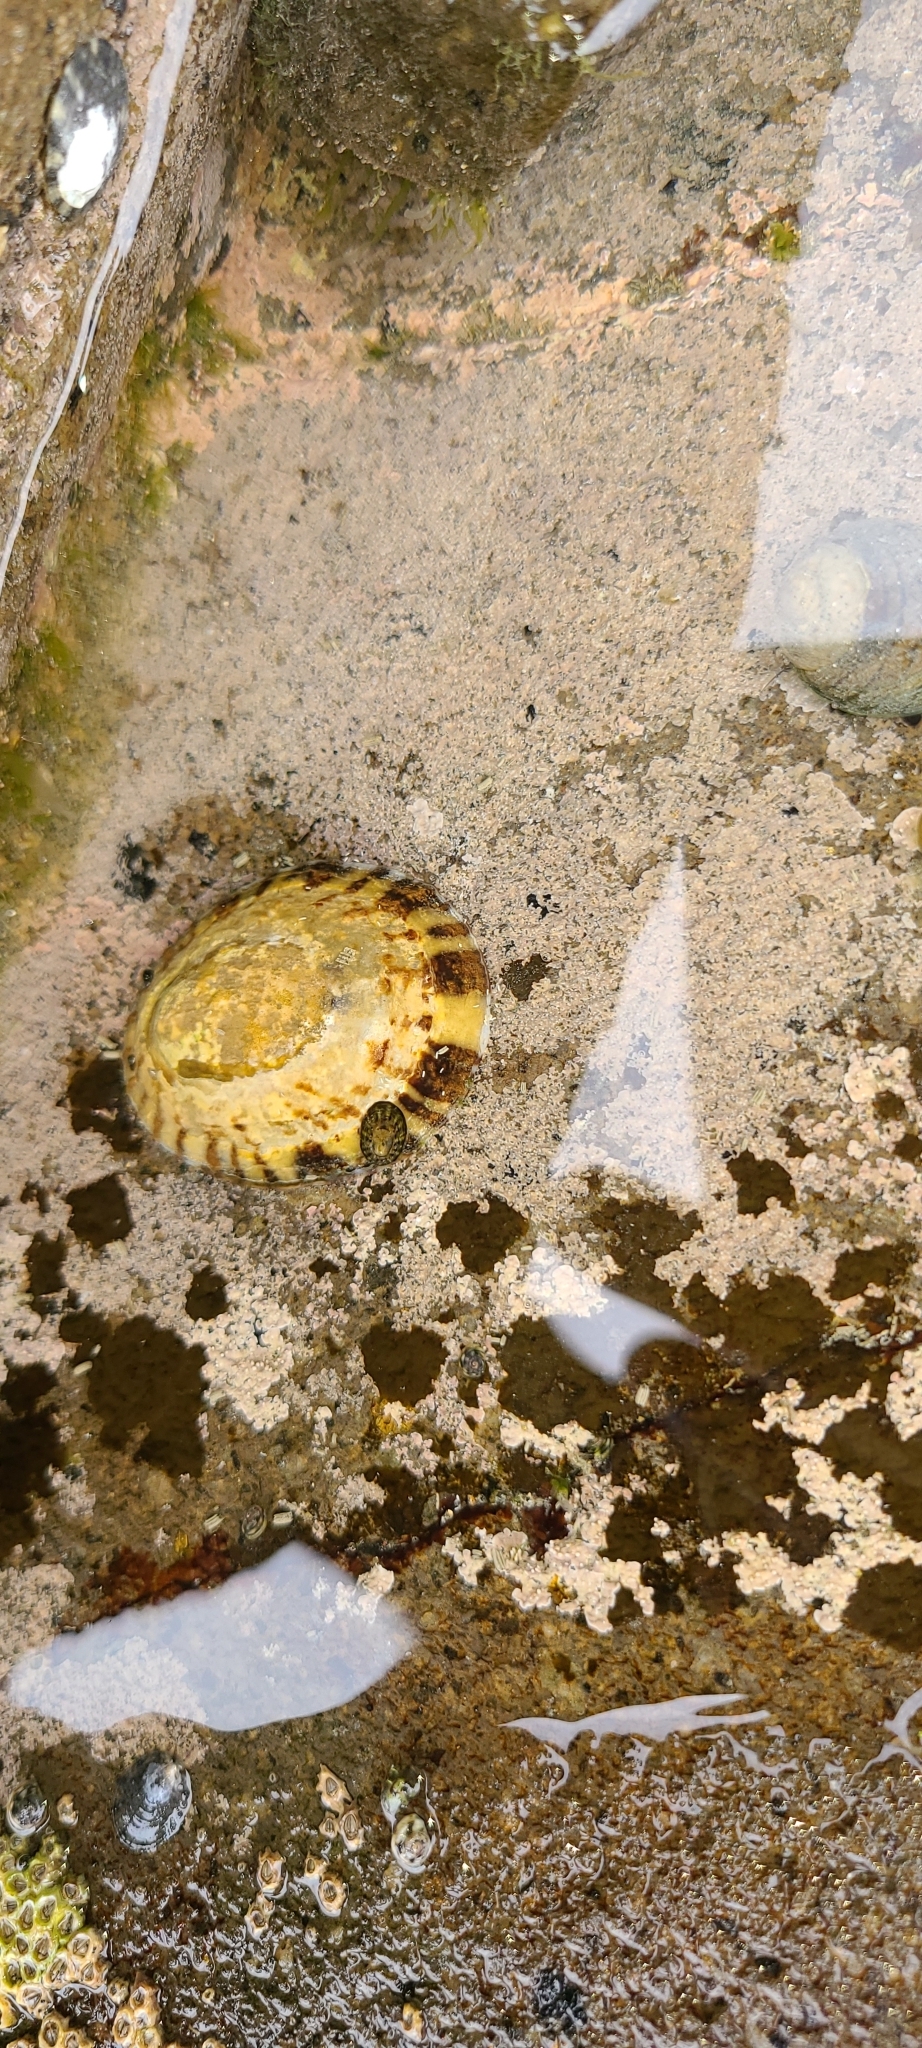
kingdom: Animalia
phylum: Mollusca
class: Gastropoda
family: Nacellidae
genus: Cellana
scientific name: Cellana radians
